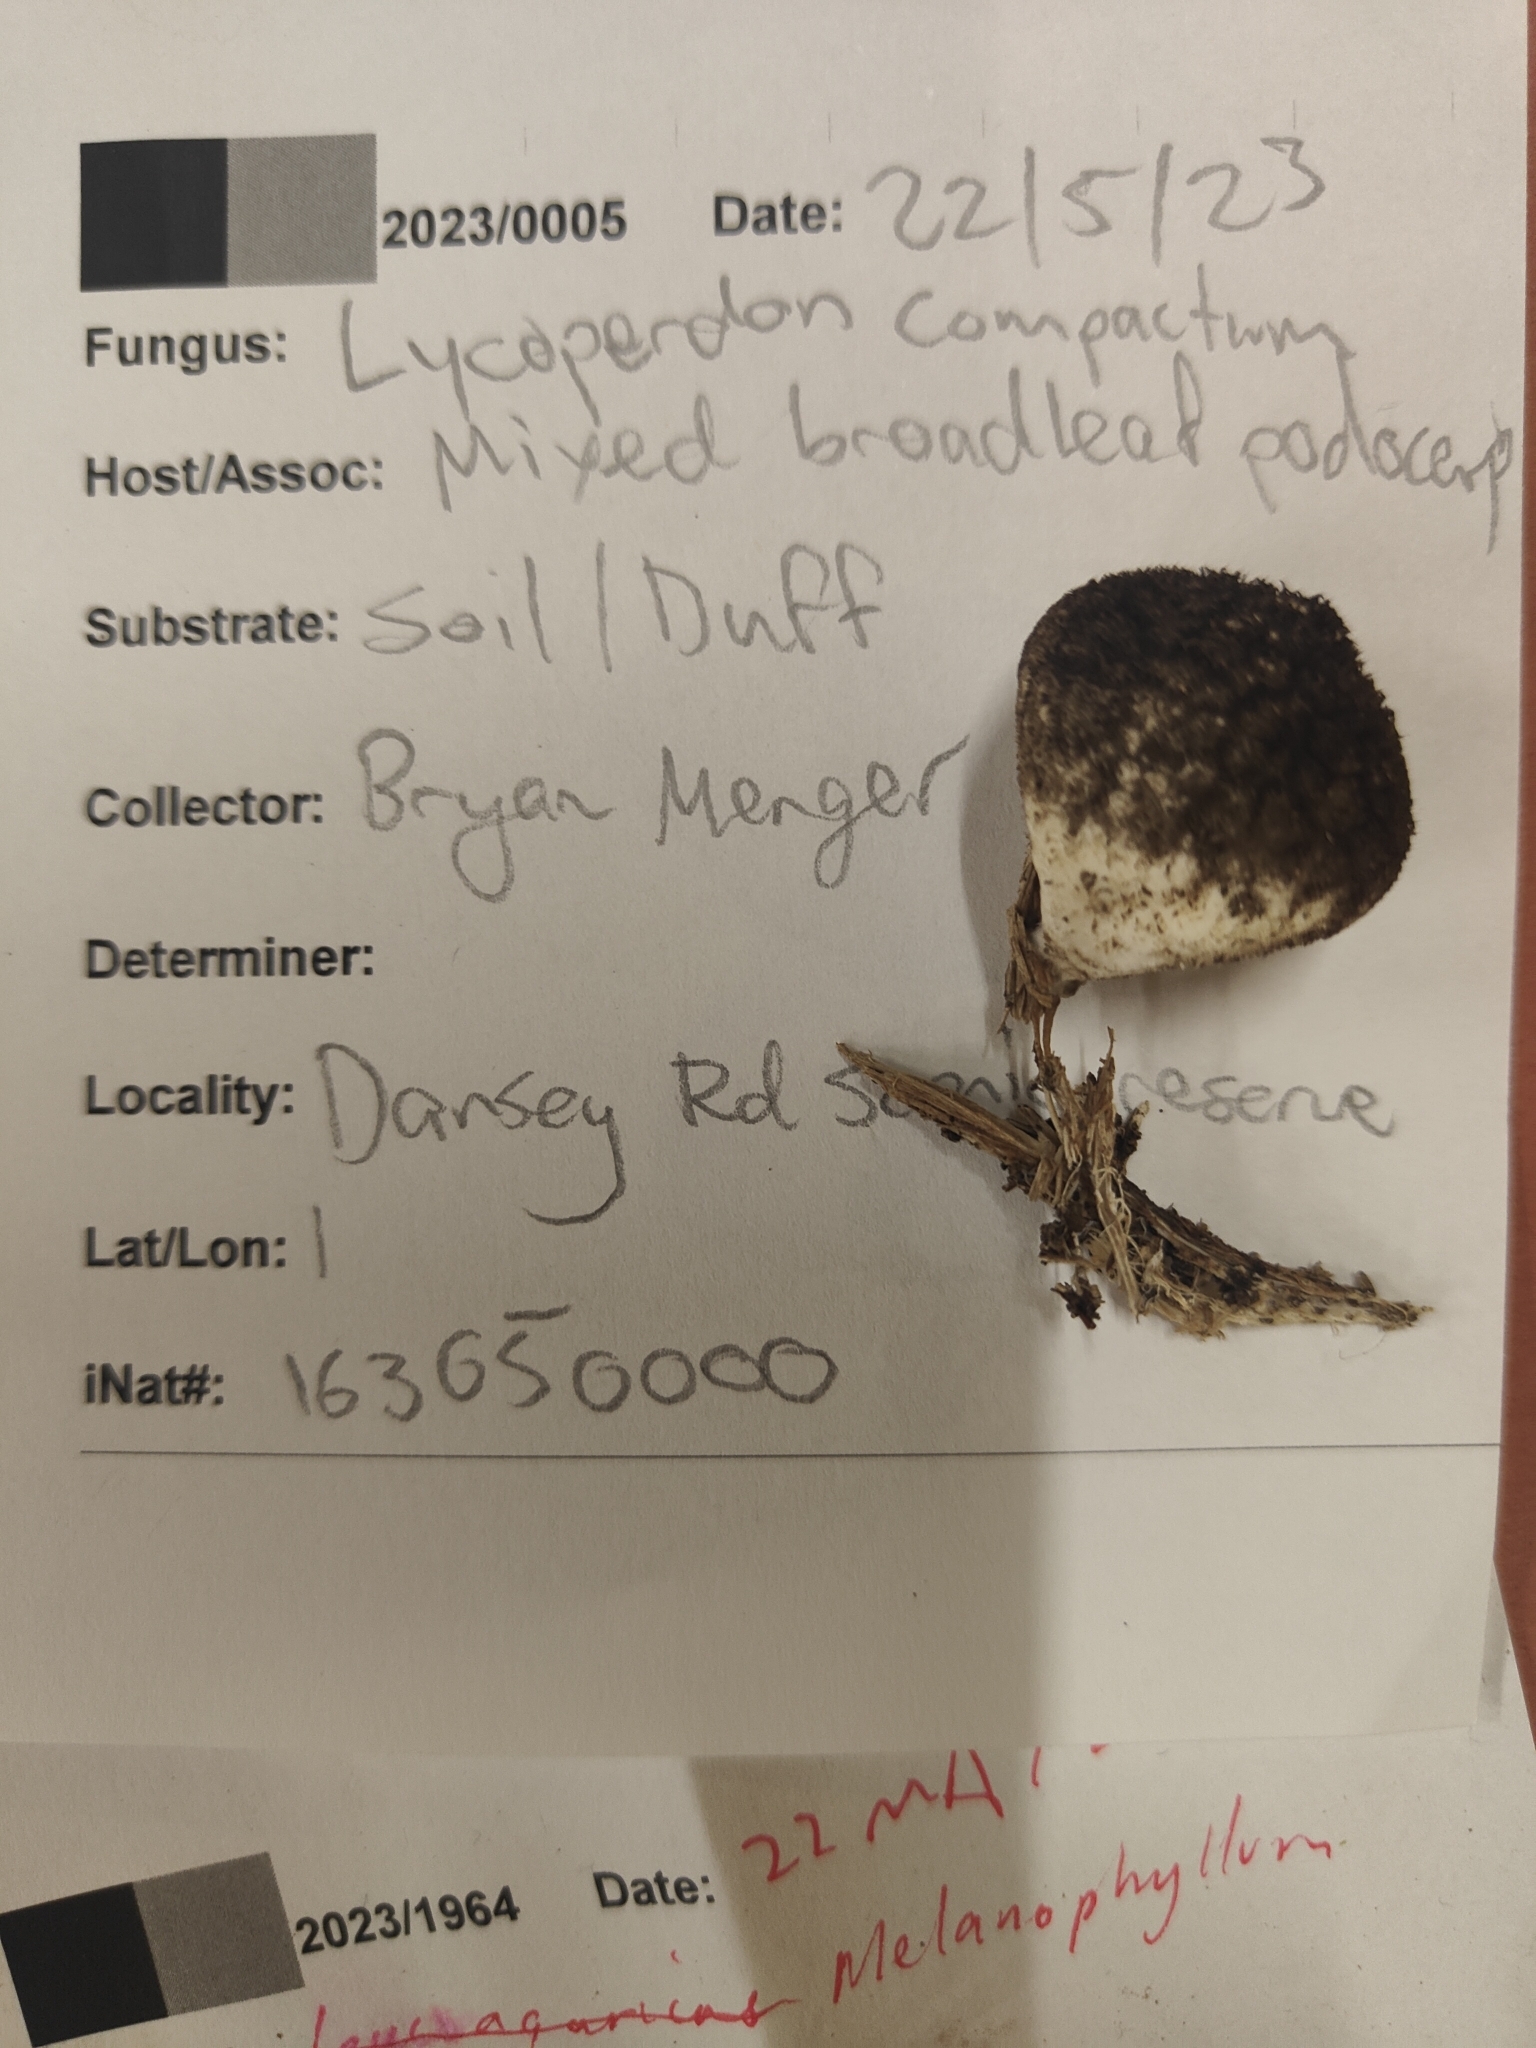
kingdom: Fungi
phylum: Basidiomycota
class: Agaricomycetes
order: Agaricales
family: Lycoperdaceae
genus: Lycoperdon
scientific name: Lycoperdon compactum
